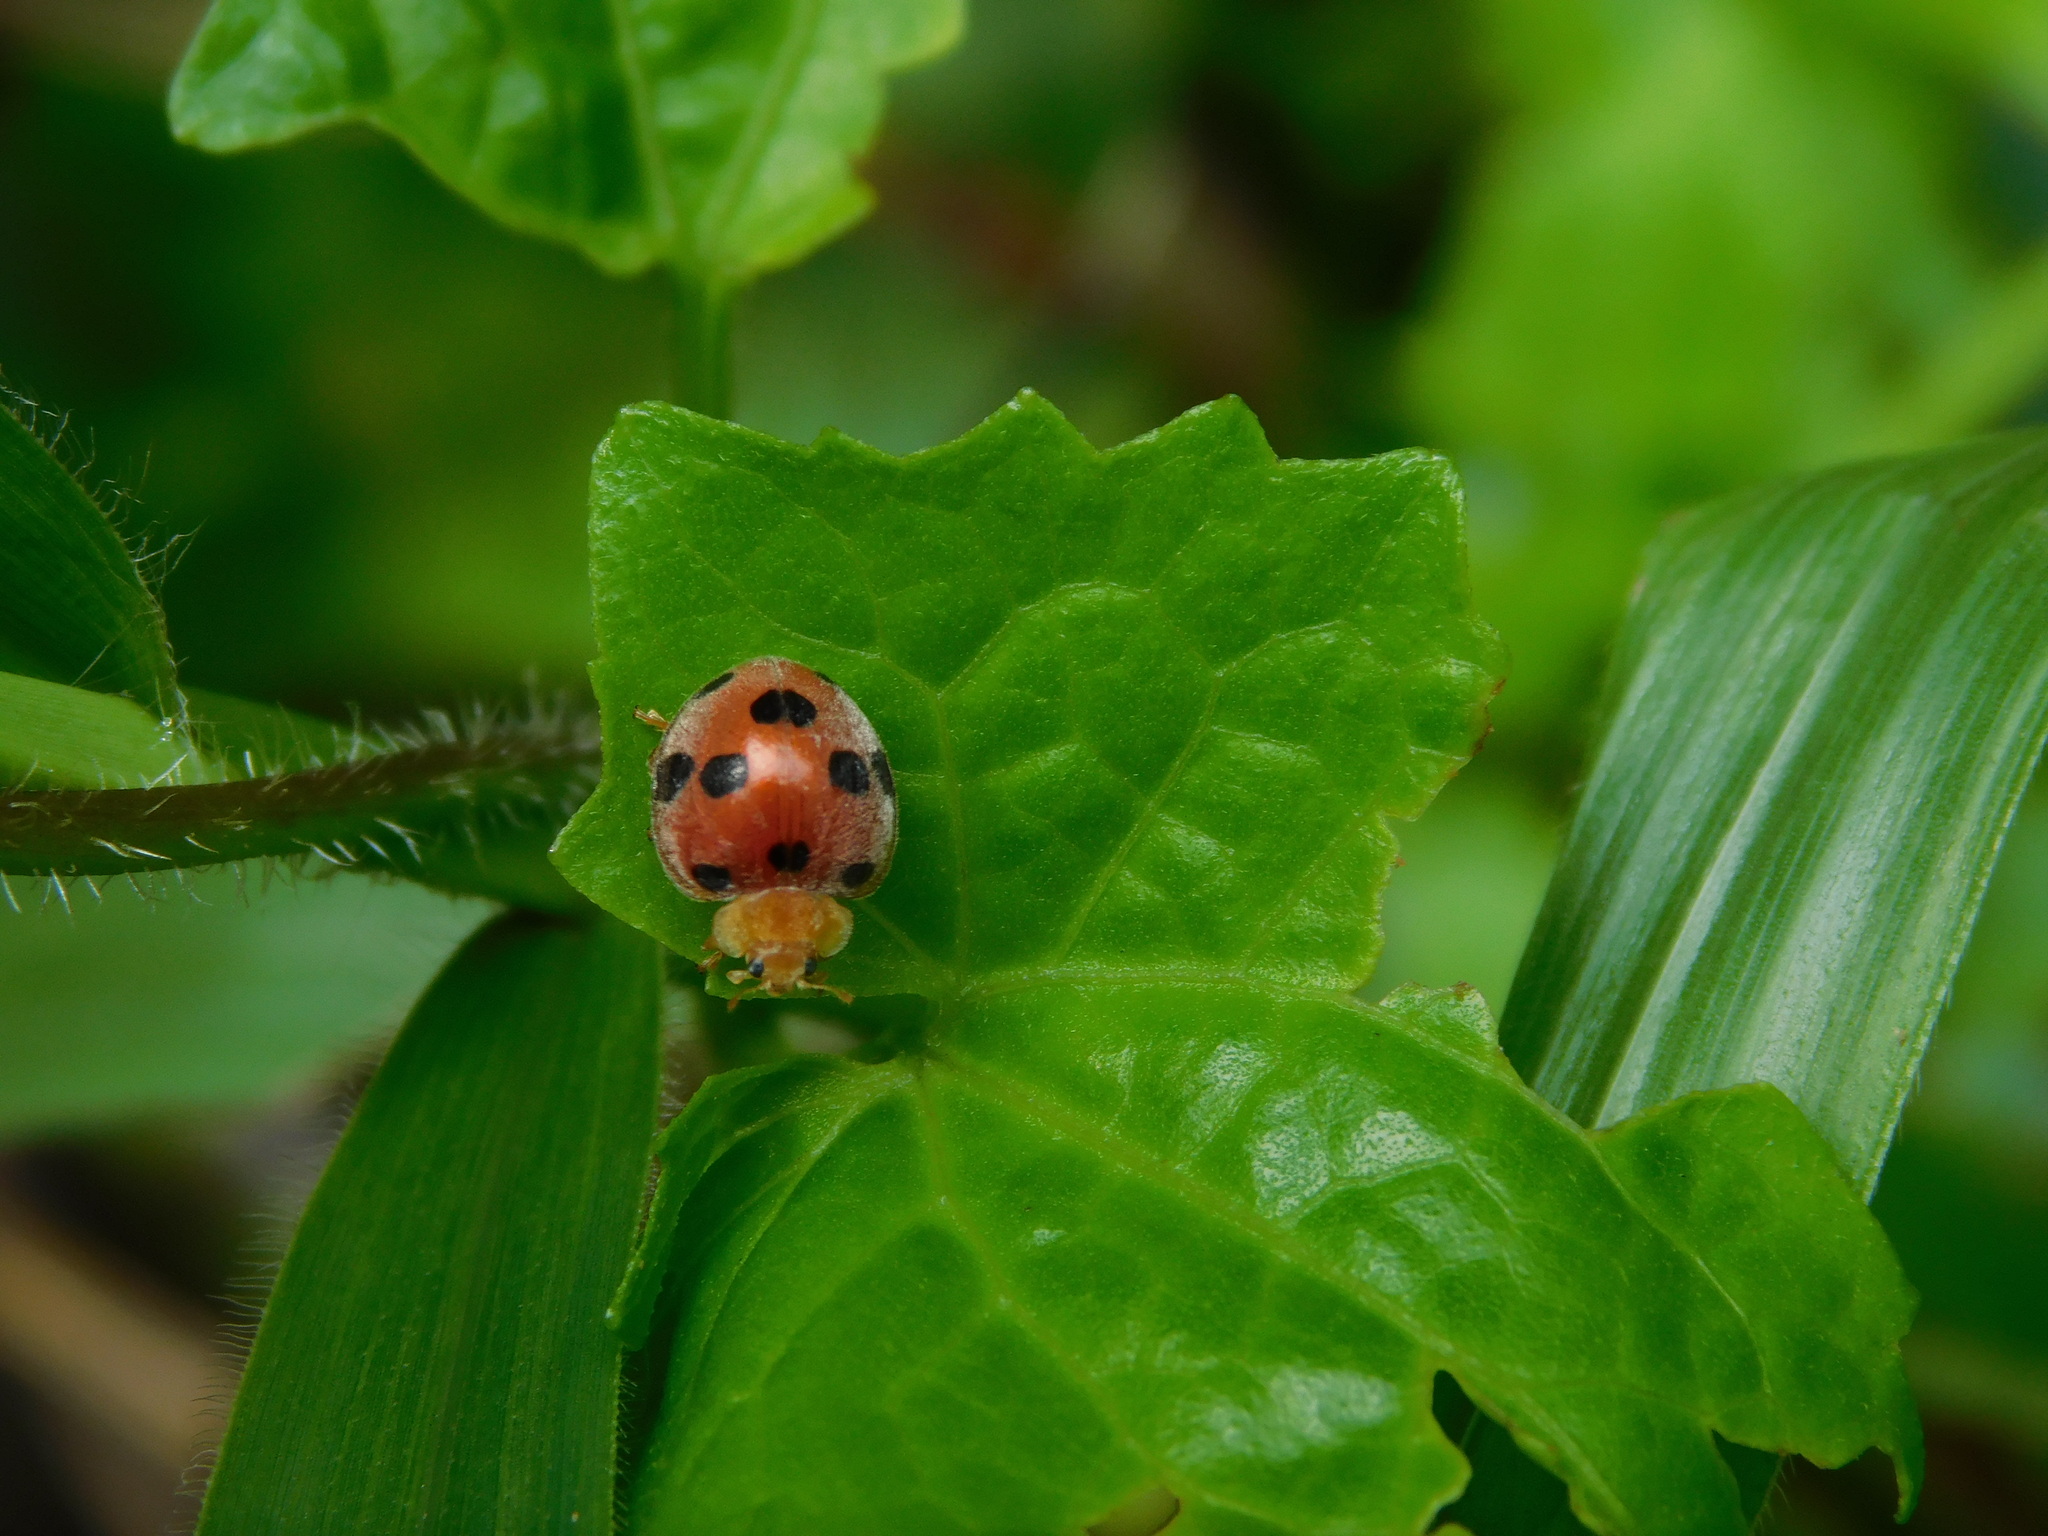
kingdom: Animalia
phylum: Arthropoda
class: Insecta
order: Coleoptera
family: Coccinellidae
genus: Henosepilachna
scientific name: Henosepilachna
